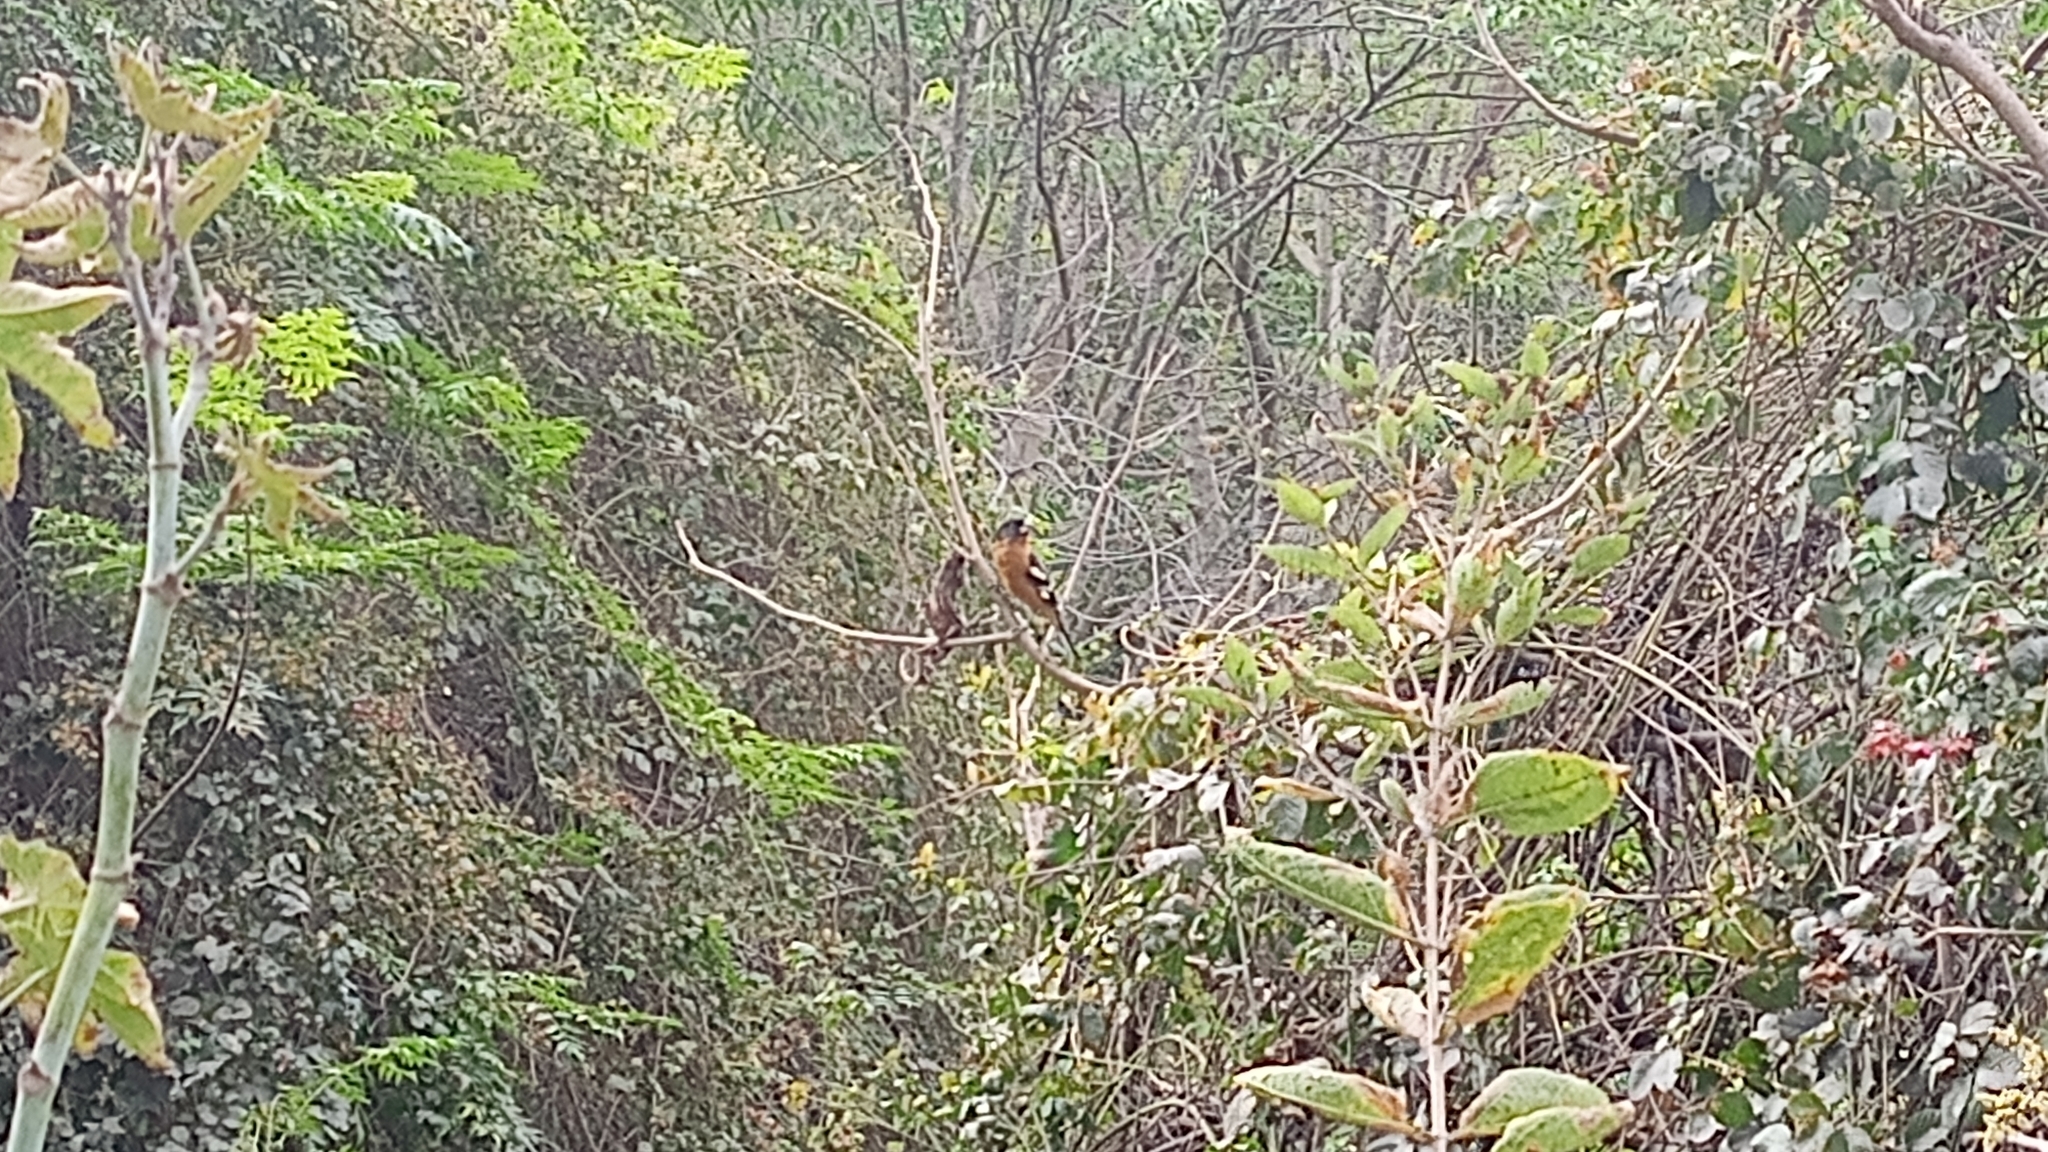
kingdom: Animalia
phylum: Chordata
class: Aves
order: Passeriformes
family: Cardinalidae
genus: Pheucticus
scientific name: Pheucticus melanocephalus
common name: Black-headed grosbeak
